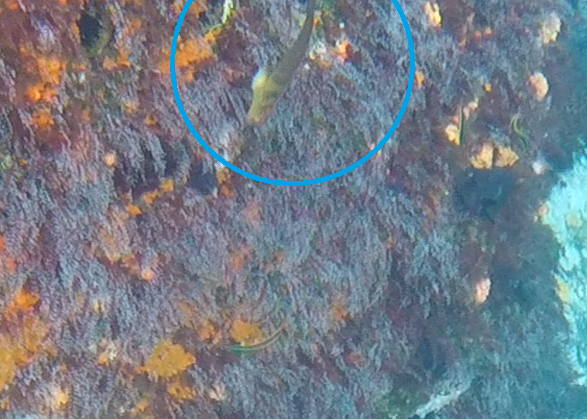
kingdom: Animalia
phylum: Chordata
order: Perciformes
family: Blenniidae
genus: Ophioblennius
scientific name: Ophioblennius steindachneri
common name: Panamic fanged blenny
